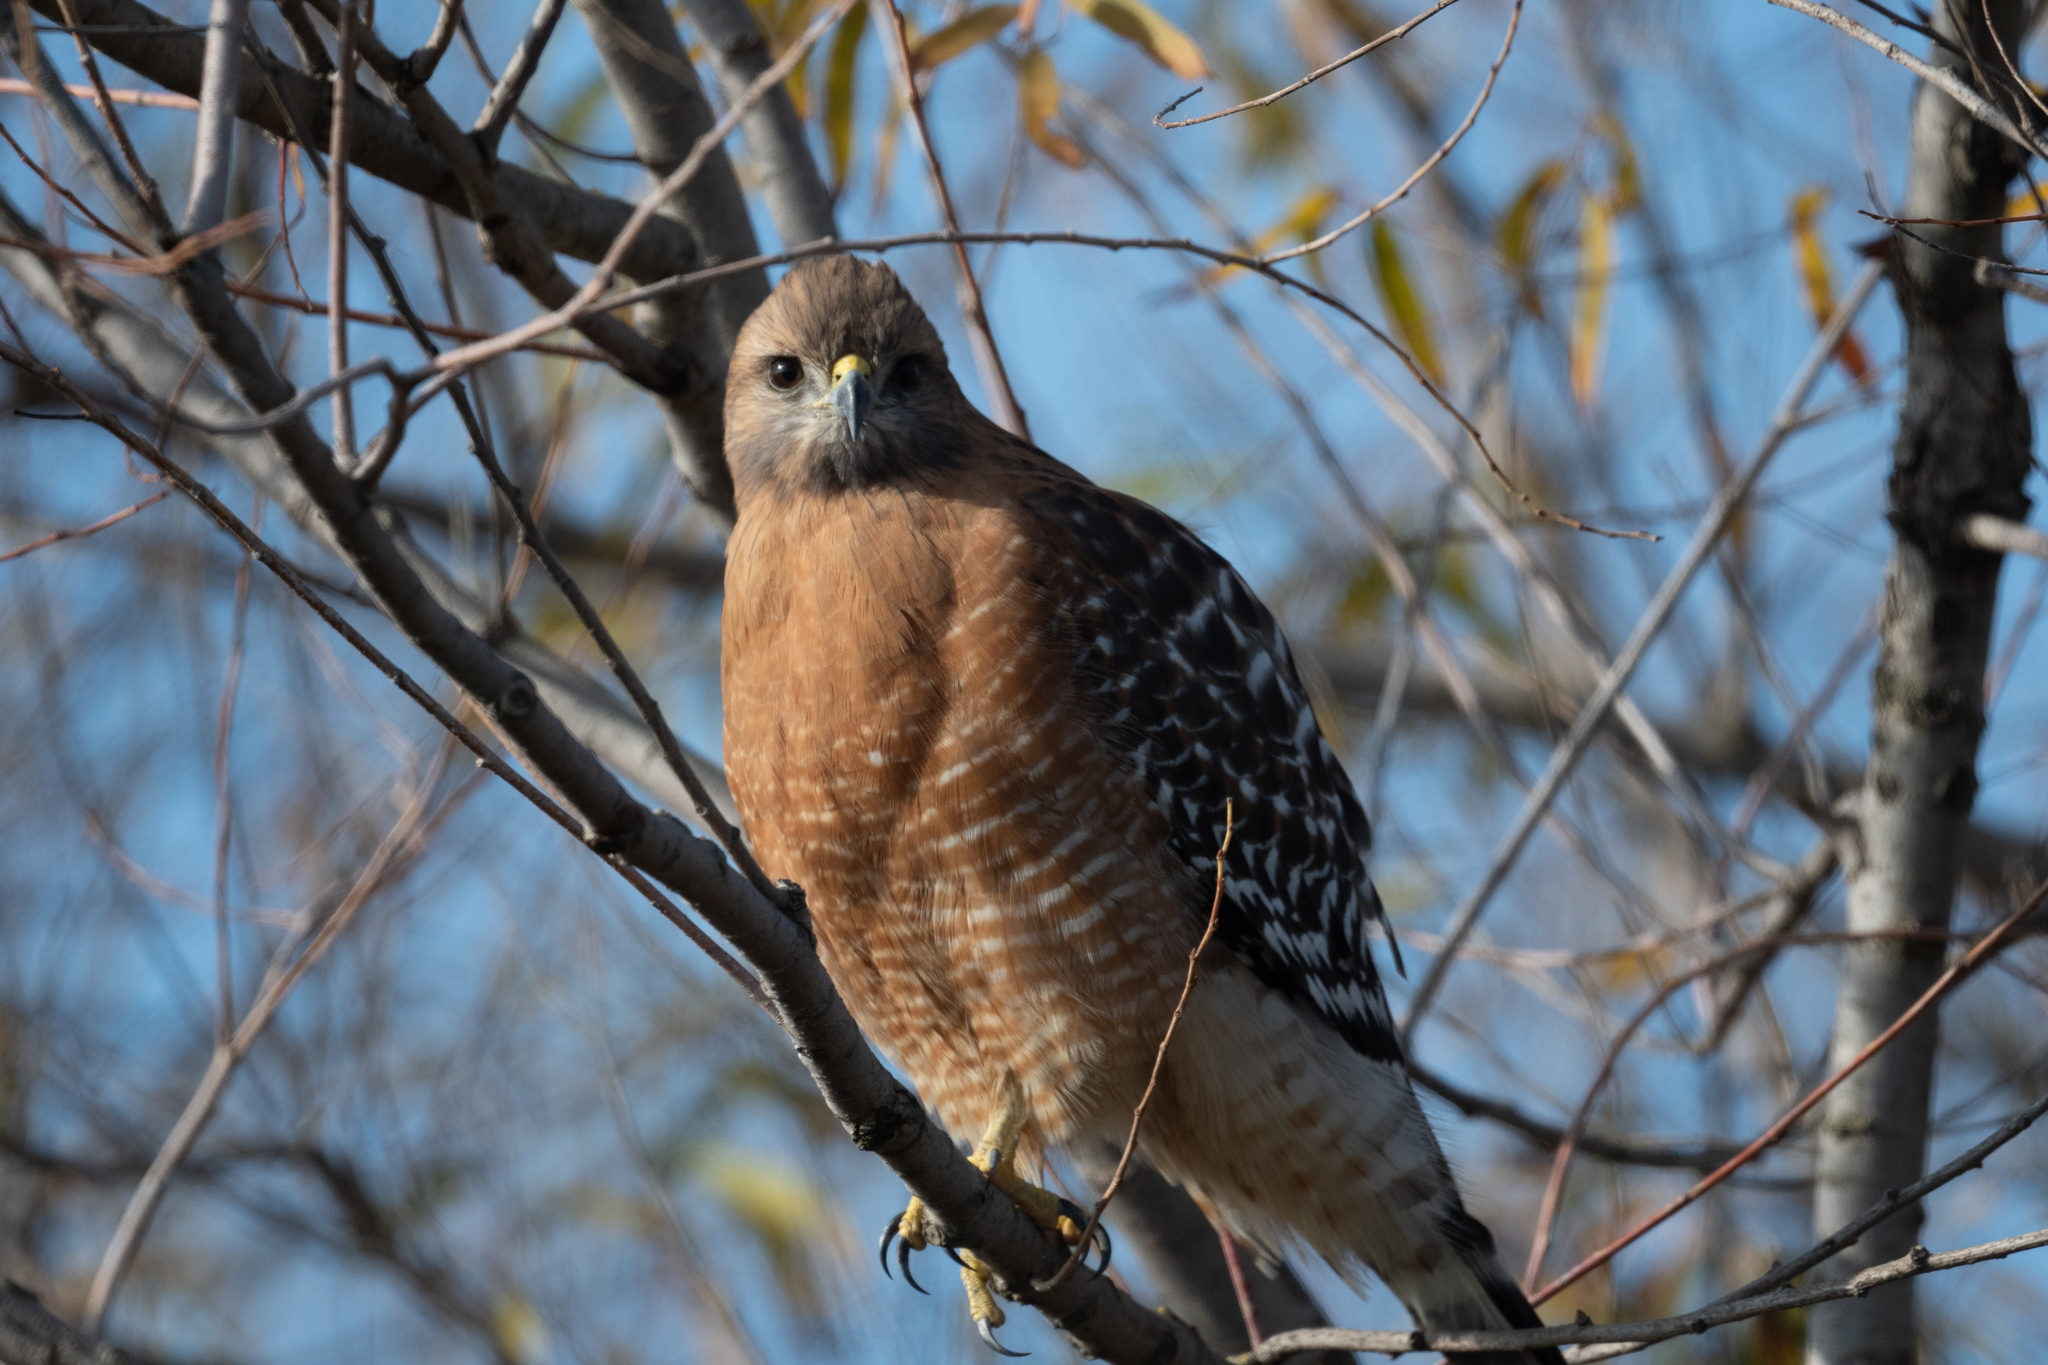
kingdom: Animalia
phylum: Chordata
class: Aves
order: Accipitriformes
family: Accipitridae
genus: Buteo
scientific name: Buteo lineatus
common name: Red-shouldered hawk
